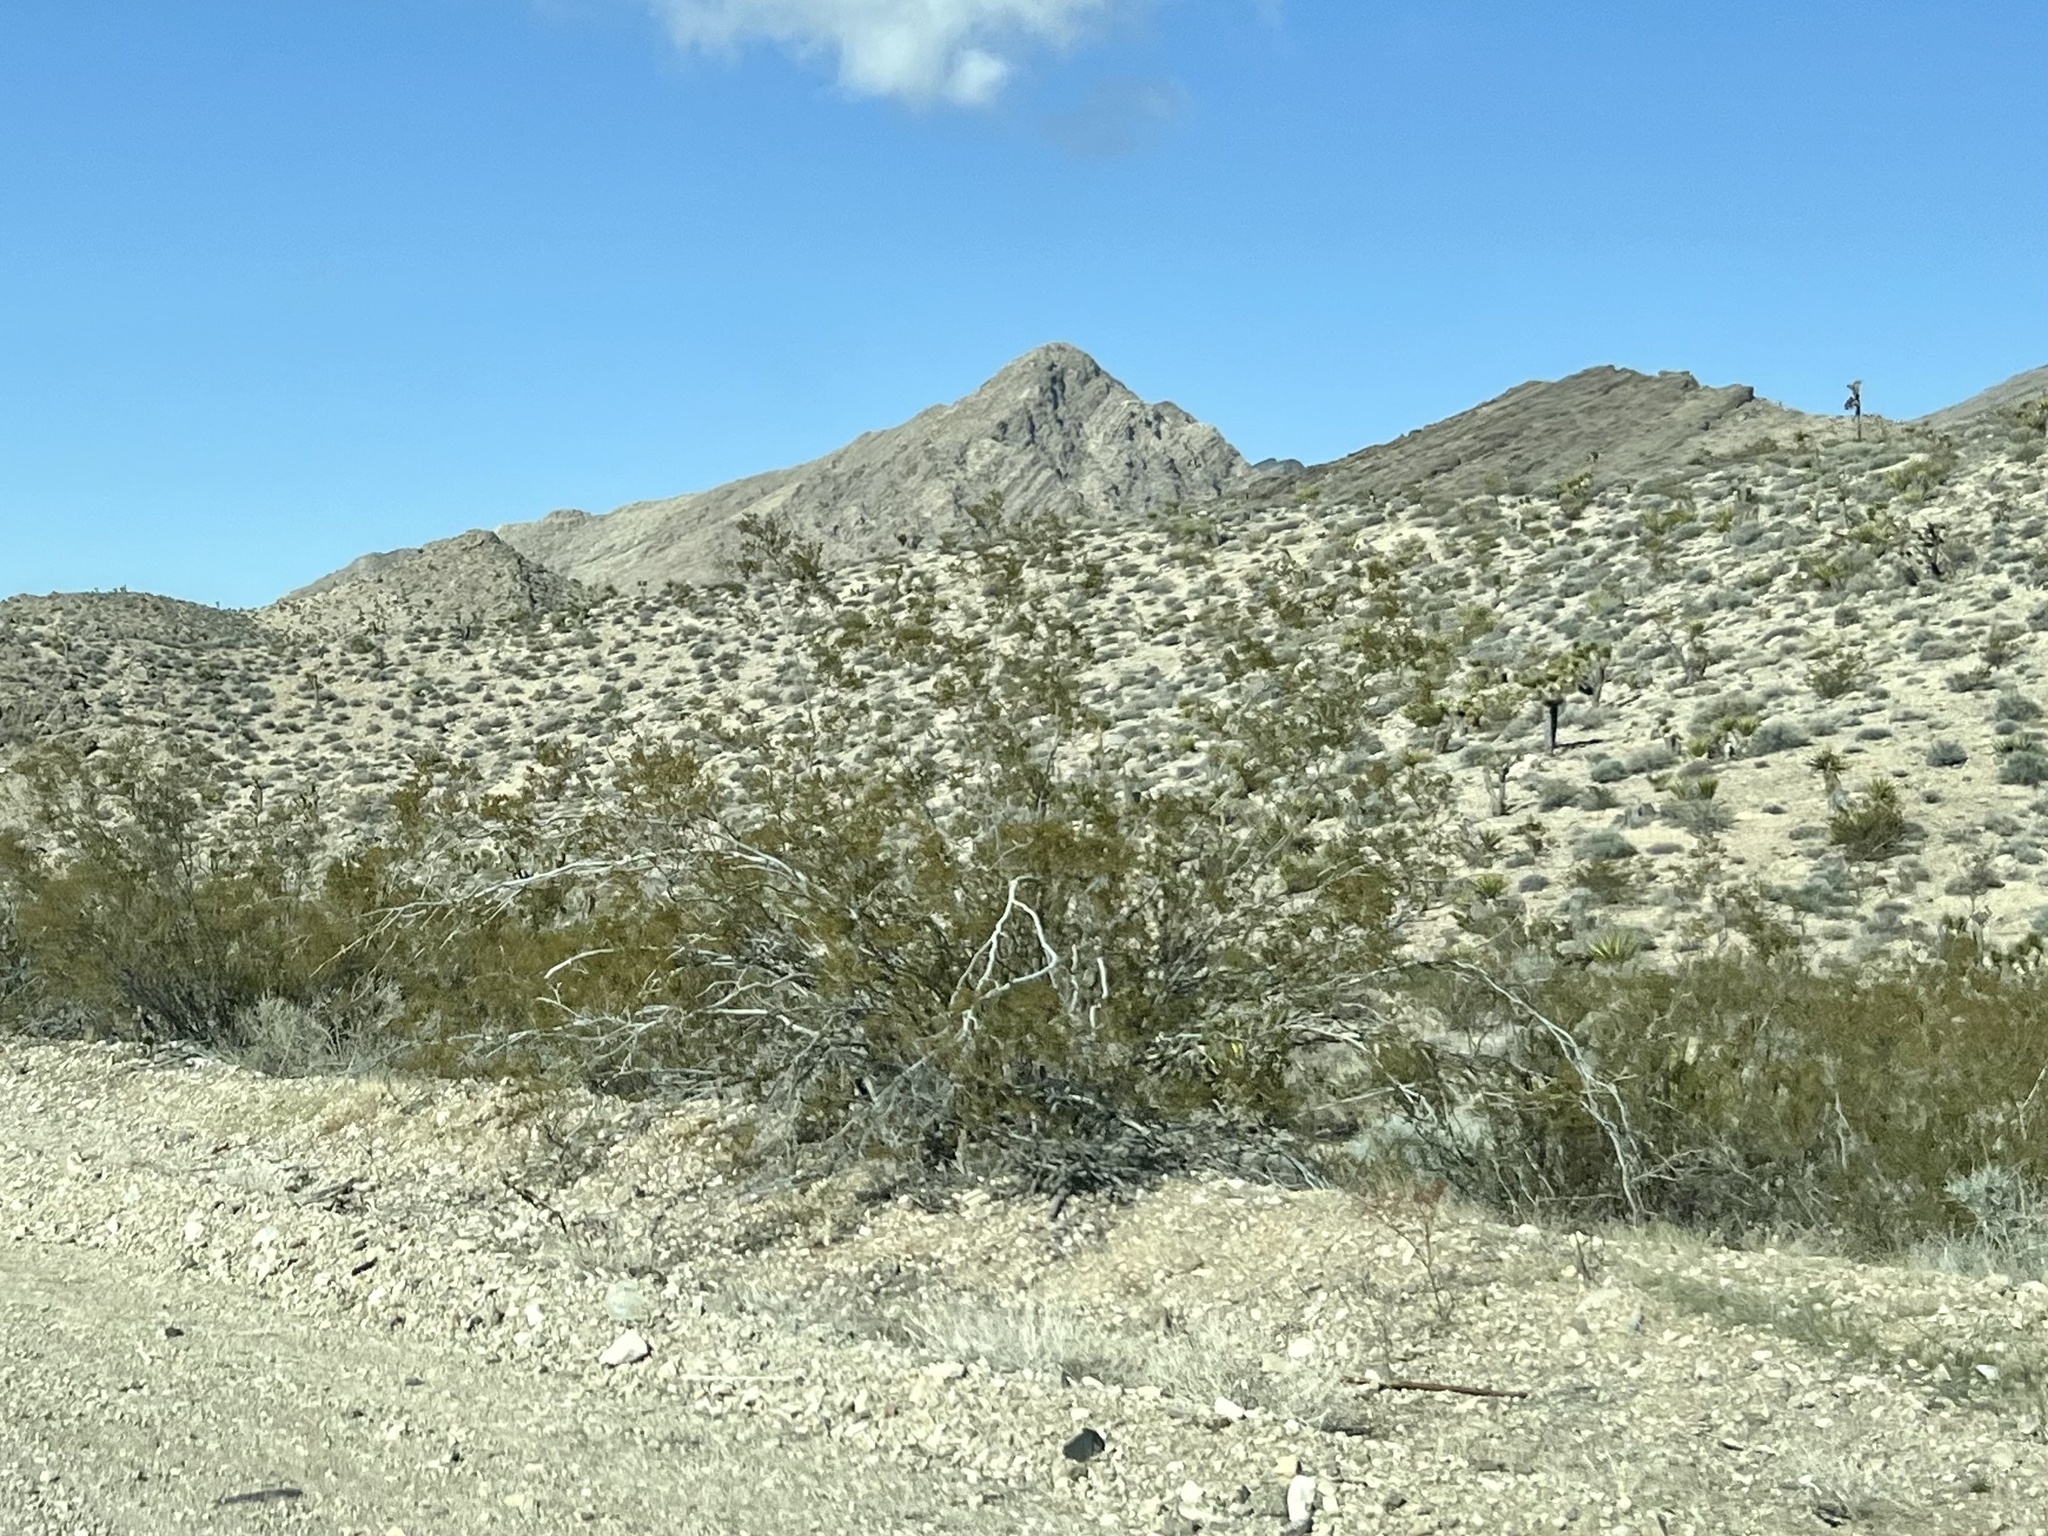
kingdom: Plantae
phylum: Tracheophyta
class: Magnoliopsida
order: Zygophyllales
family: Zygophyllaceae
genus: Larrea
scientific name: Larrea tridentata
